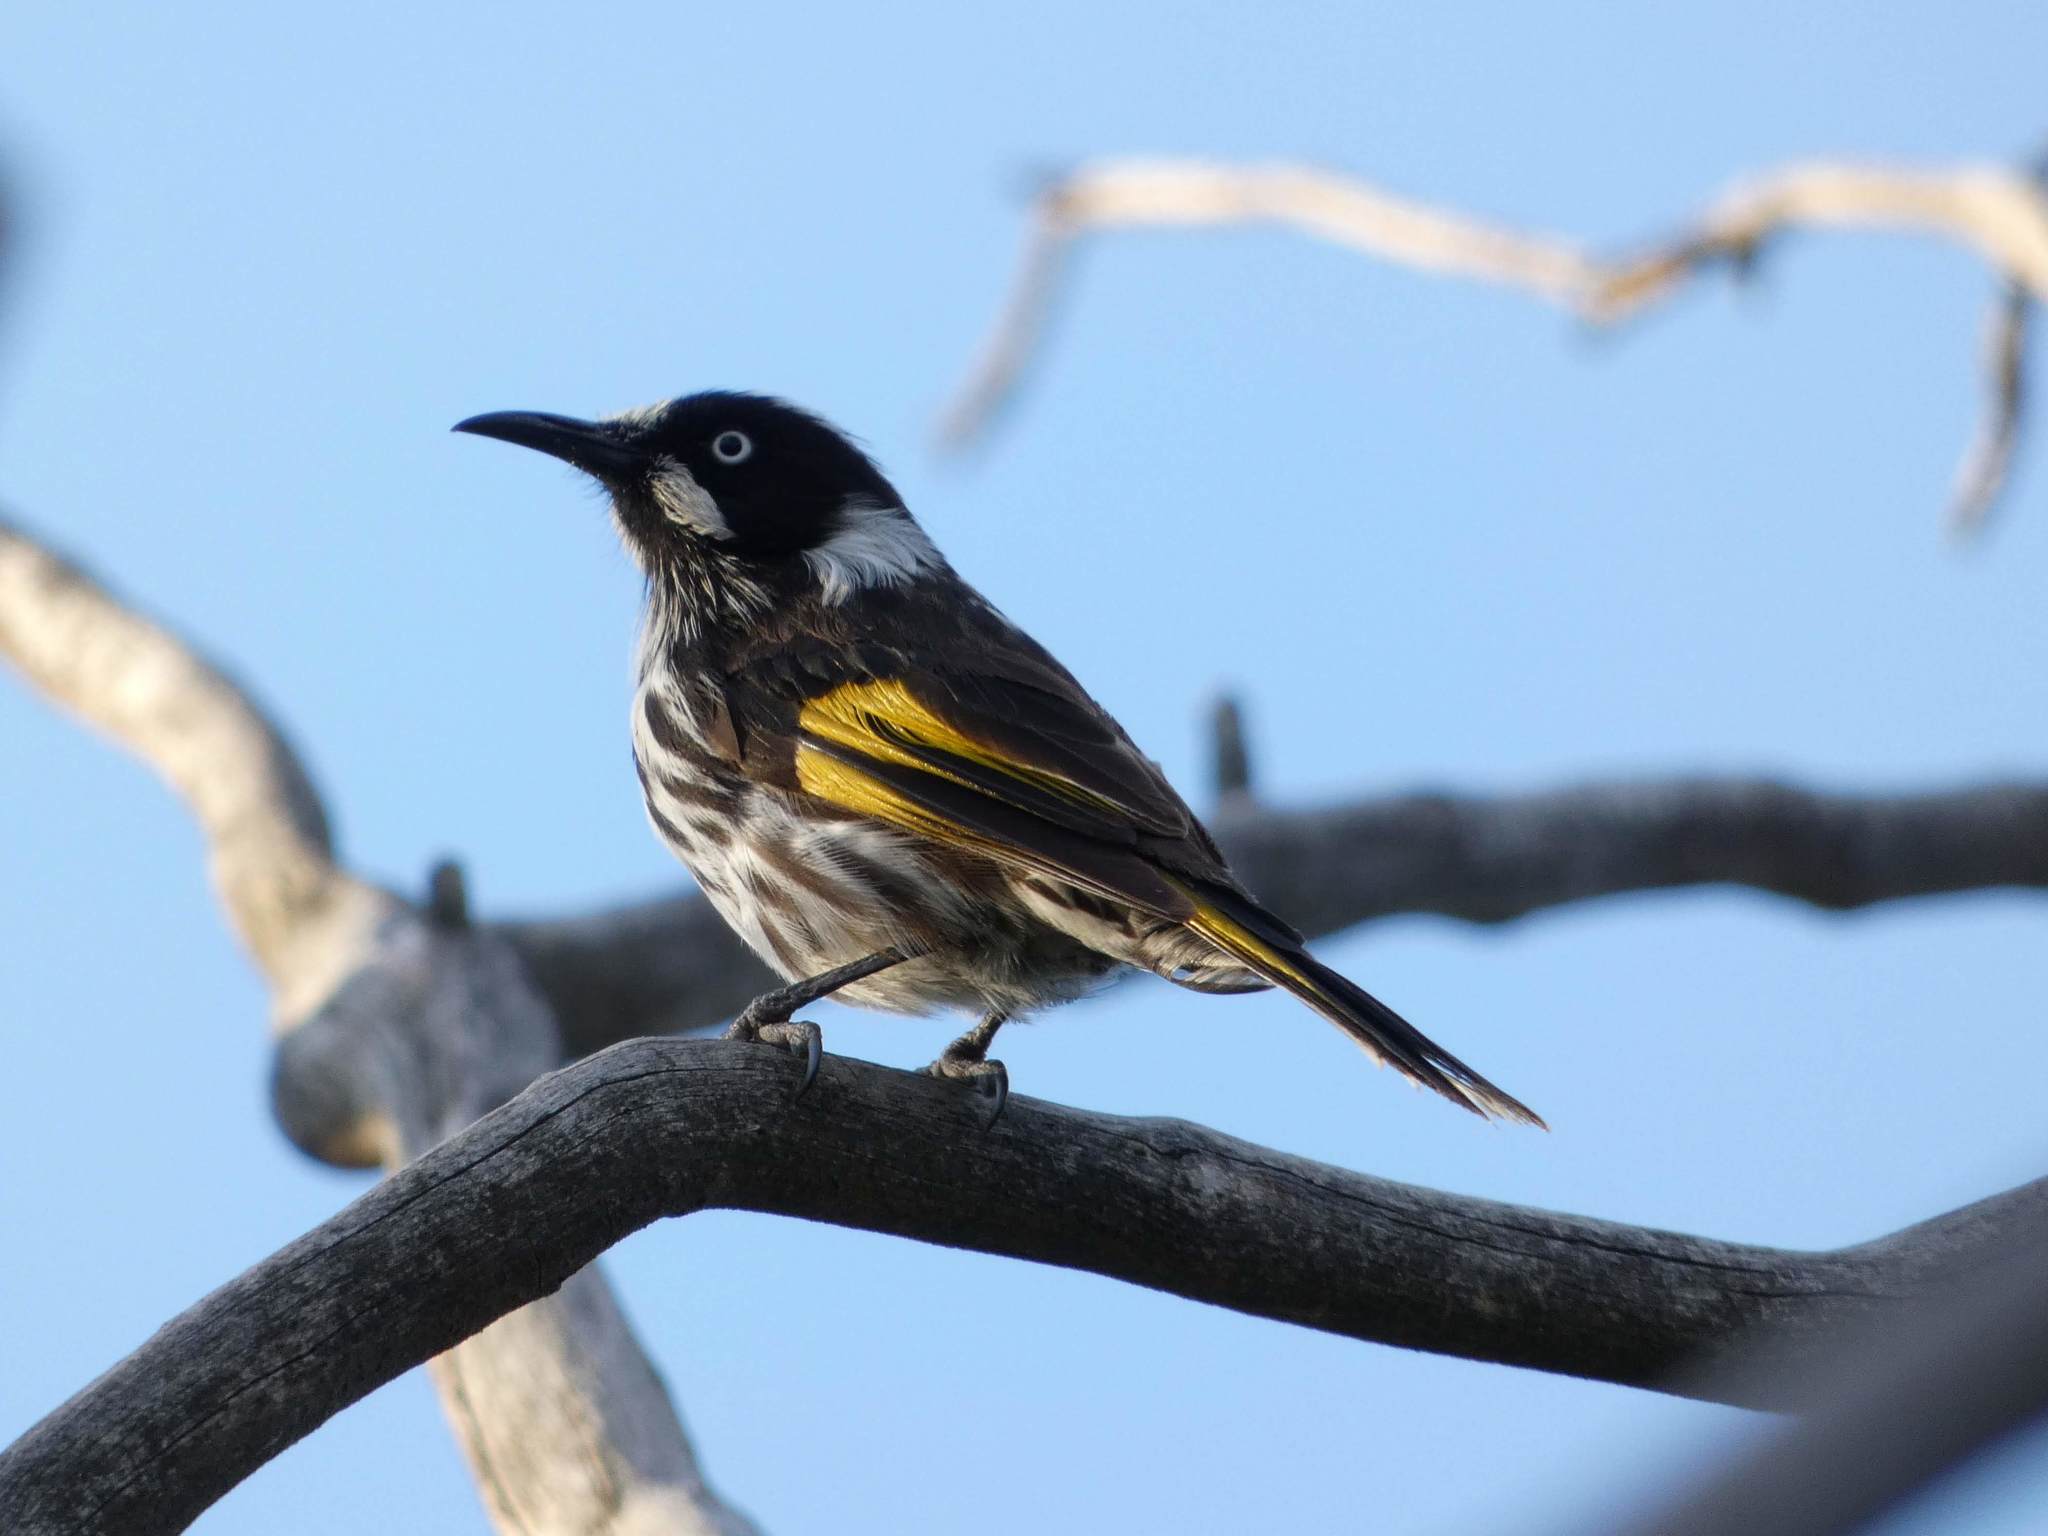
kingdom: Animalia
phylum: Chordata
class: Aves
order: Passeriformes
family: Meliphagidae
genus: Phylidonyris
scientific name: Phylidonyris novaehollandiae
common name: New holland honeyeater
